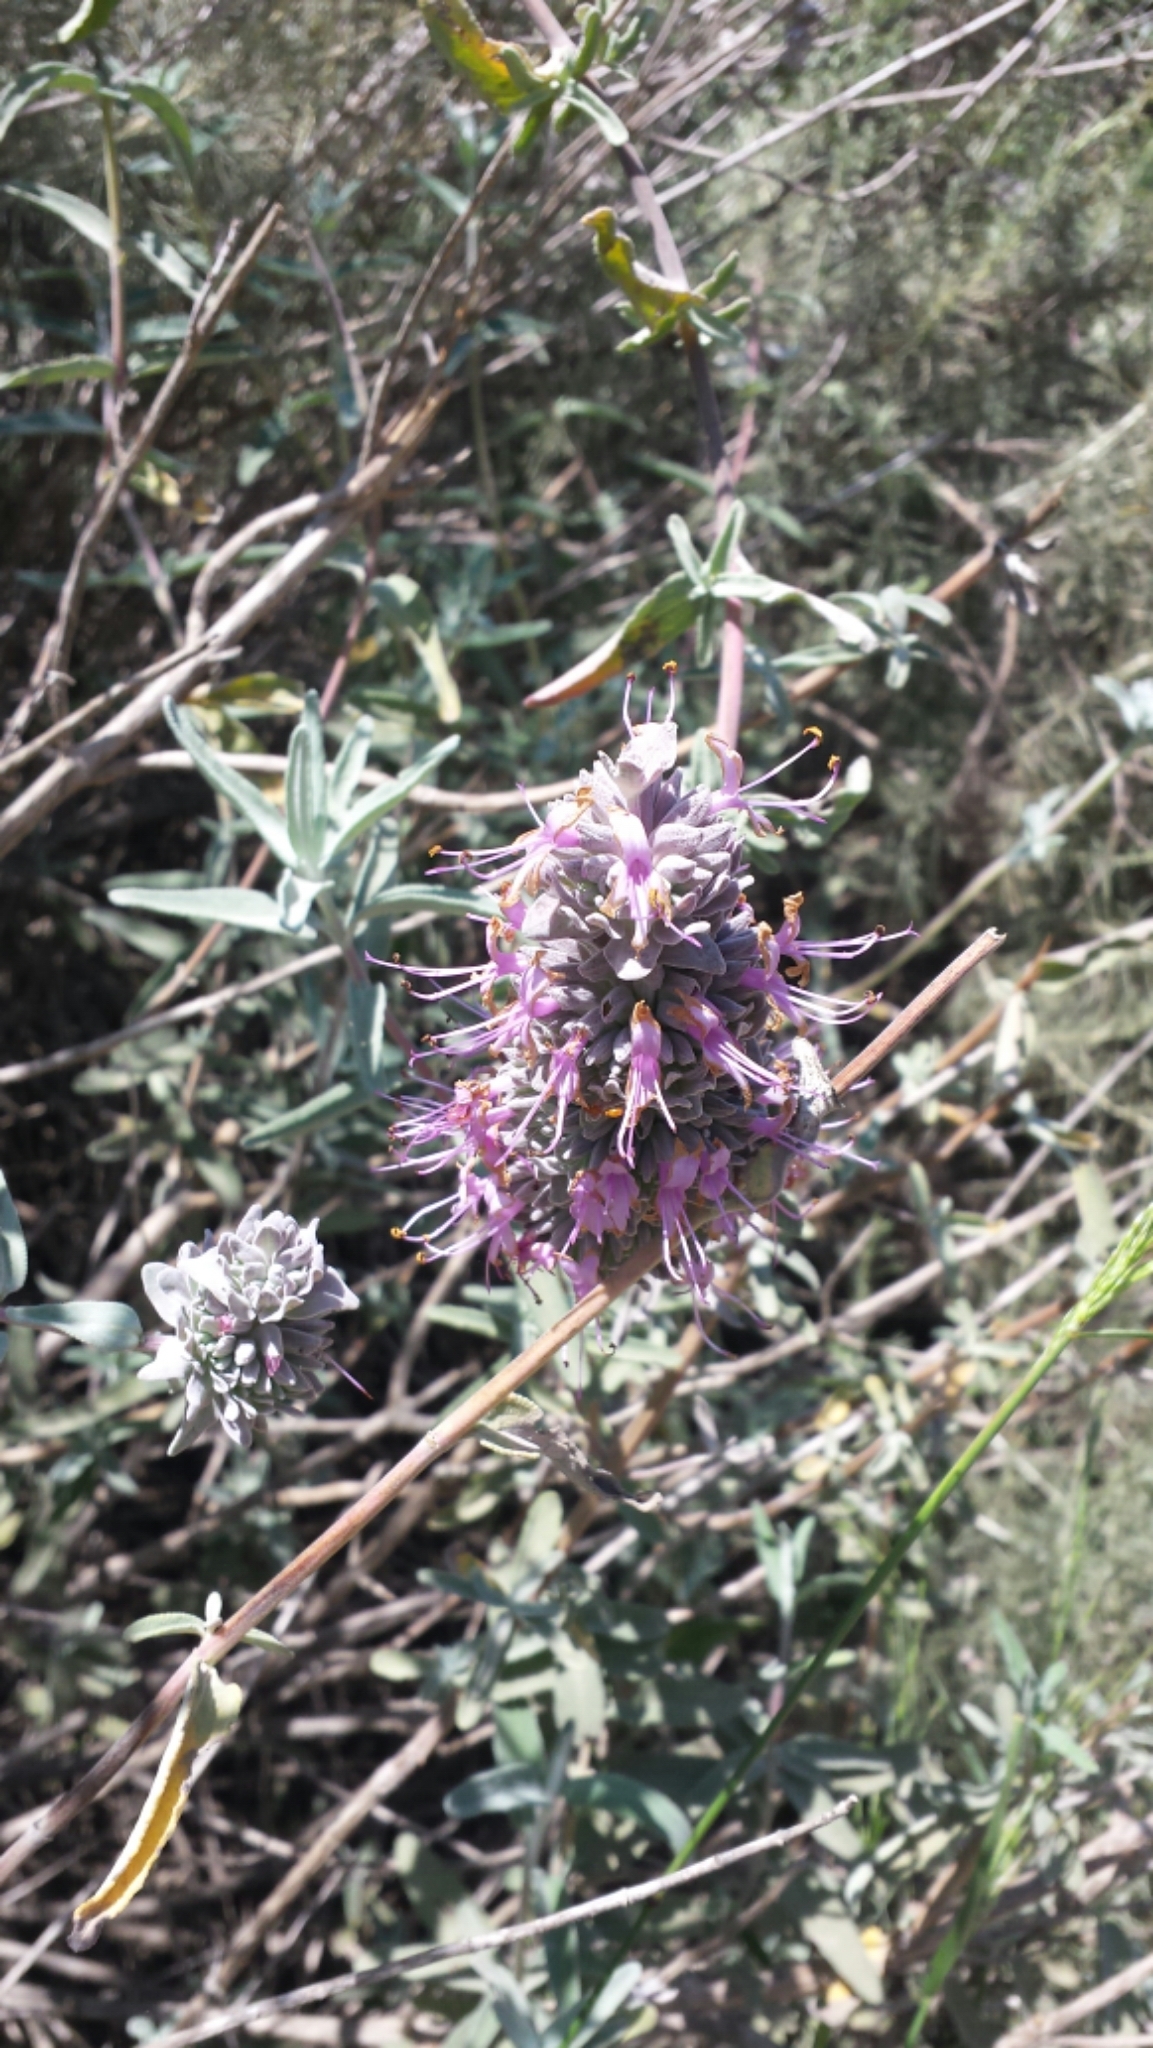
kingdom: Plantae
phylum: Tracheophyta
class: Magnoliopsida
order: Lamiales
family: Lamiaceae
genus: Salvia
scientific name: Salvia leucophylla
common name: Purple sage
